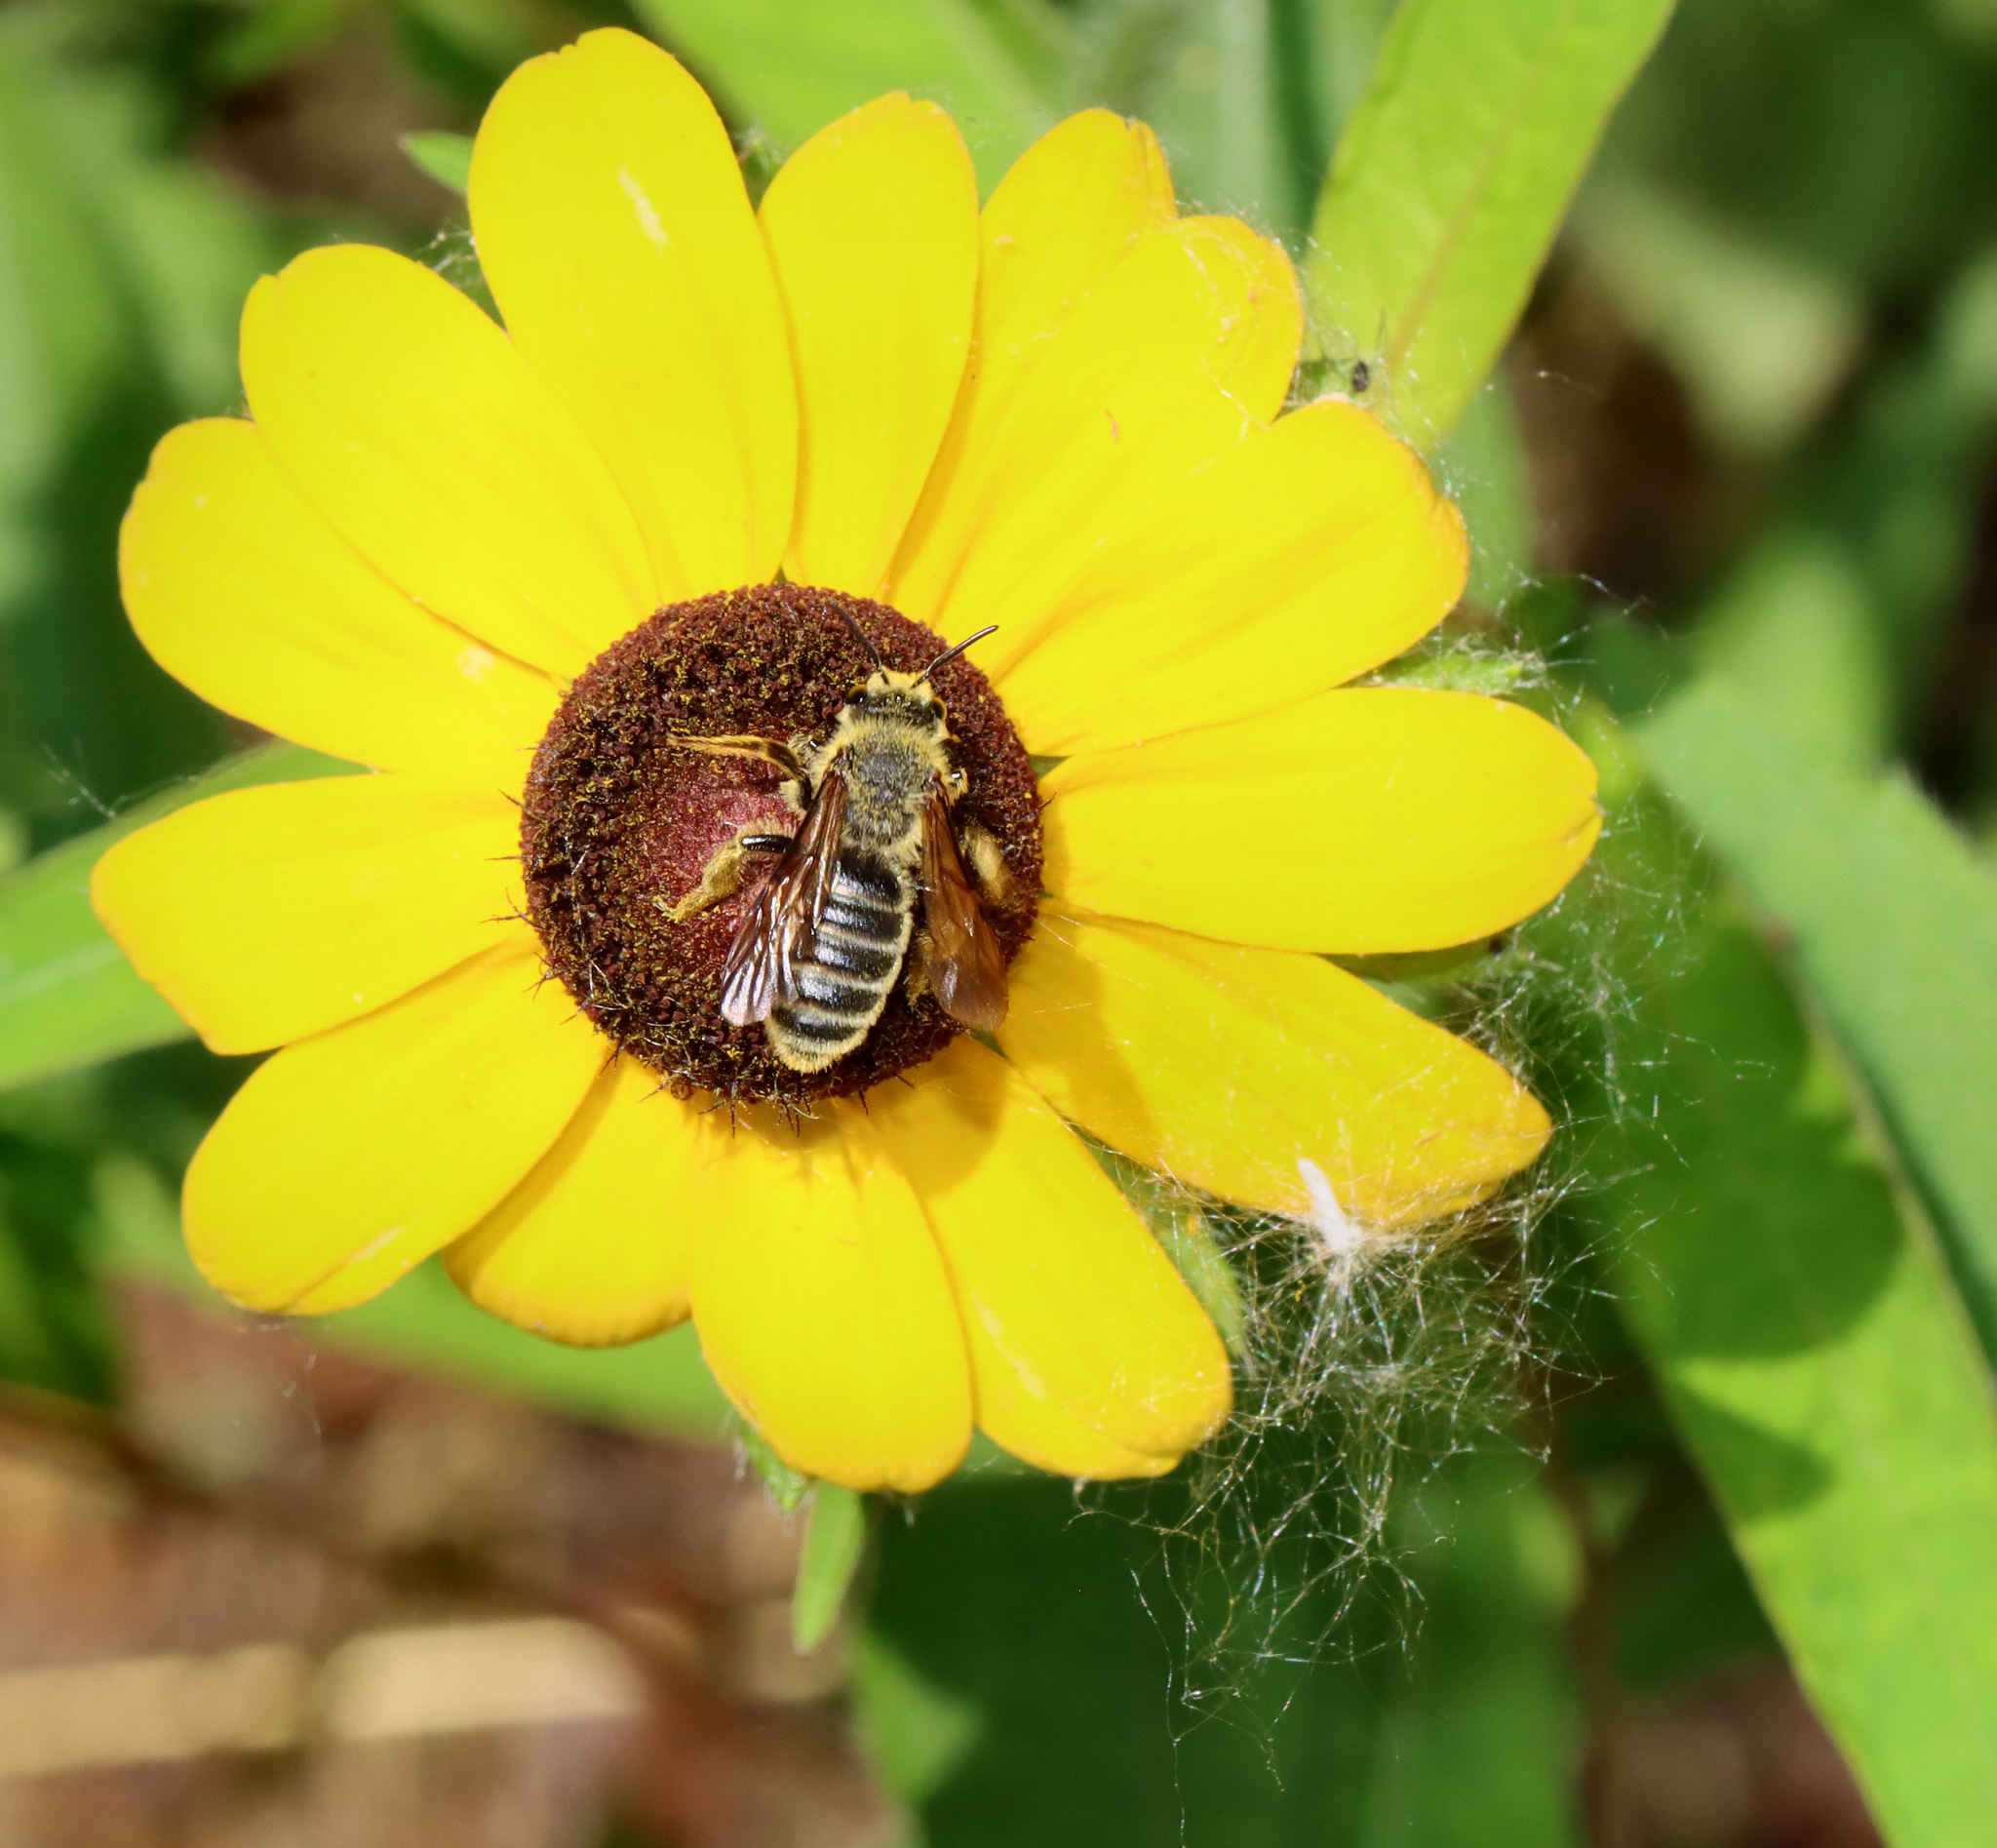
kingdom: Animalia
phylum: Arthropoda
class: Insecta
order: Hymenoptera
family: Andrenidae
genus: Andrena
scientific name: Andrena rudbeckiae
